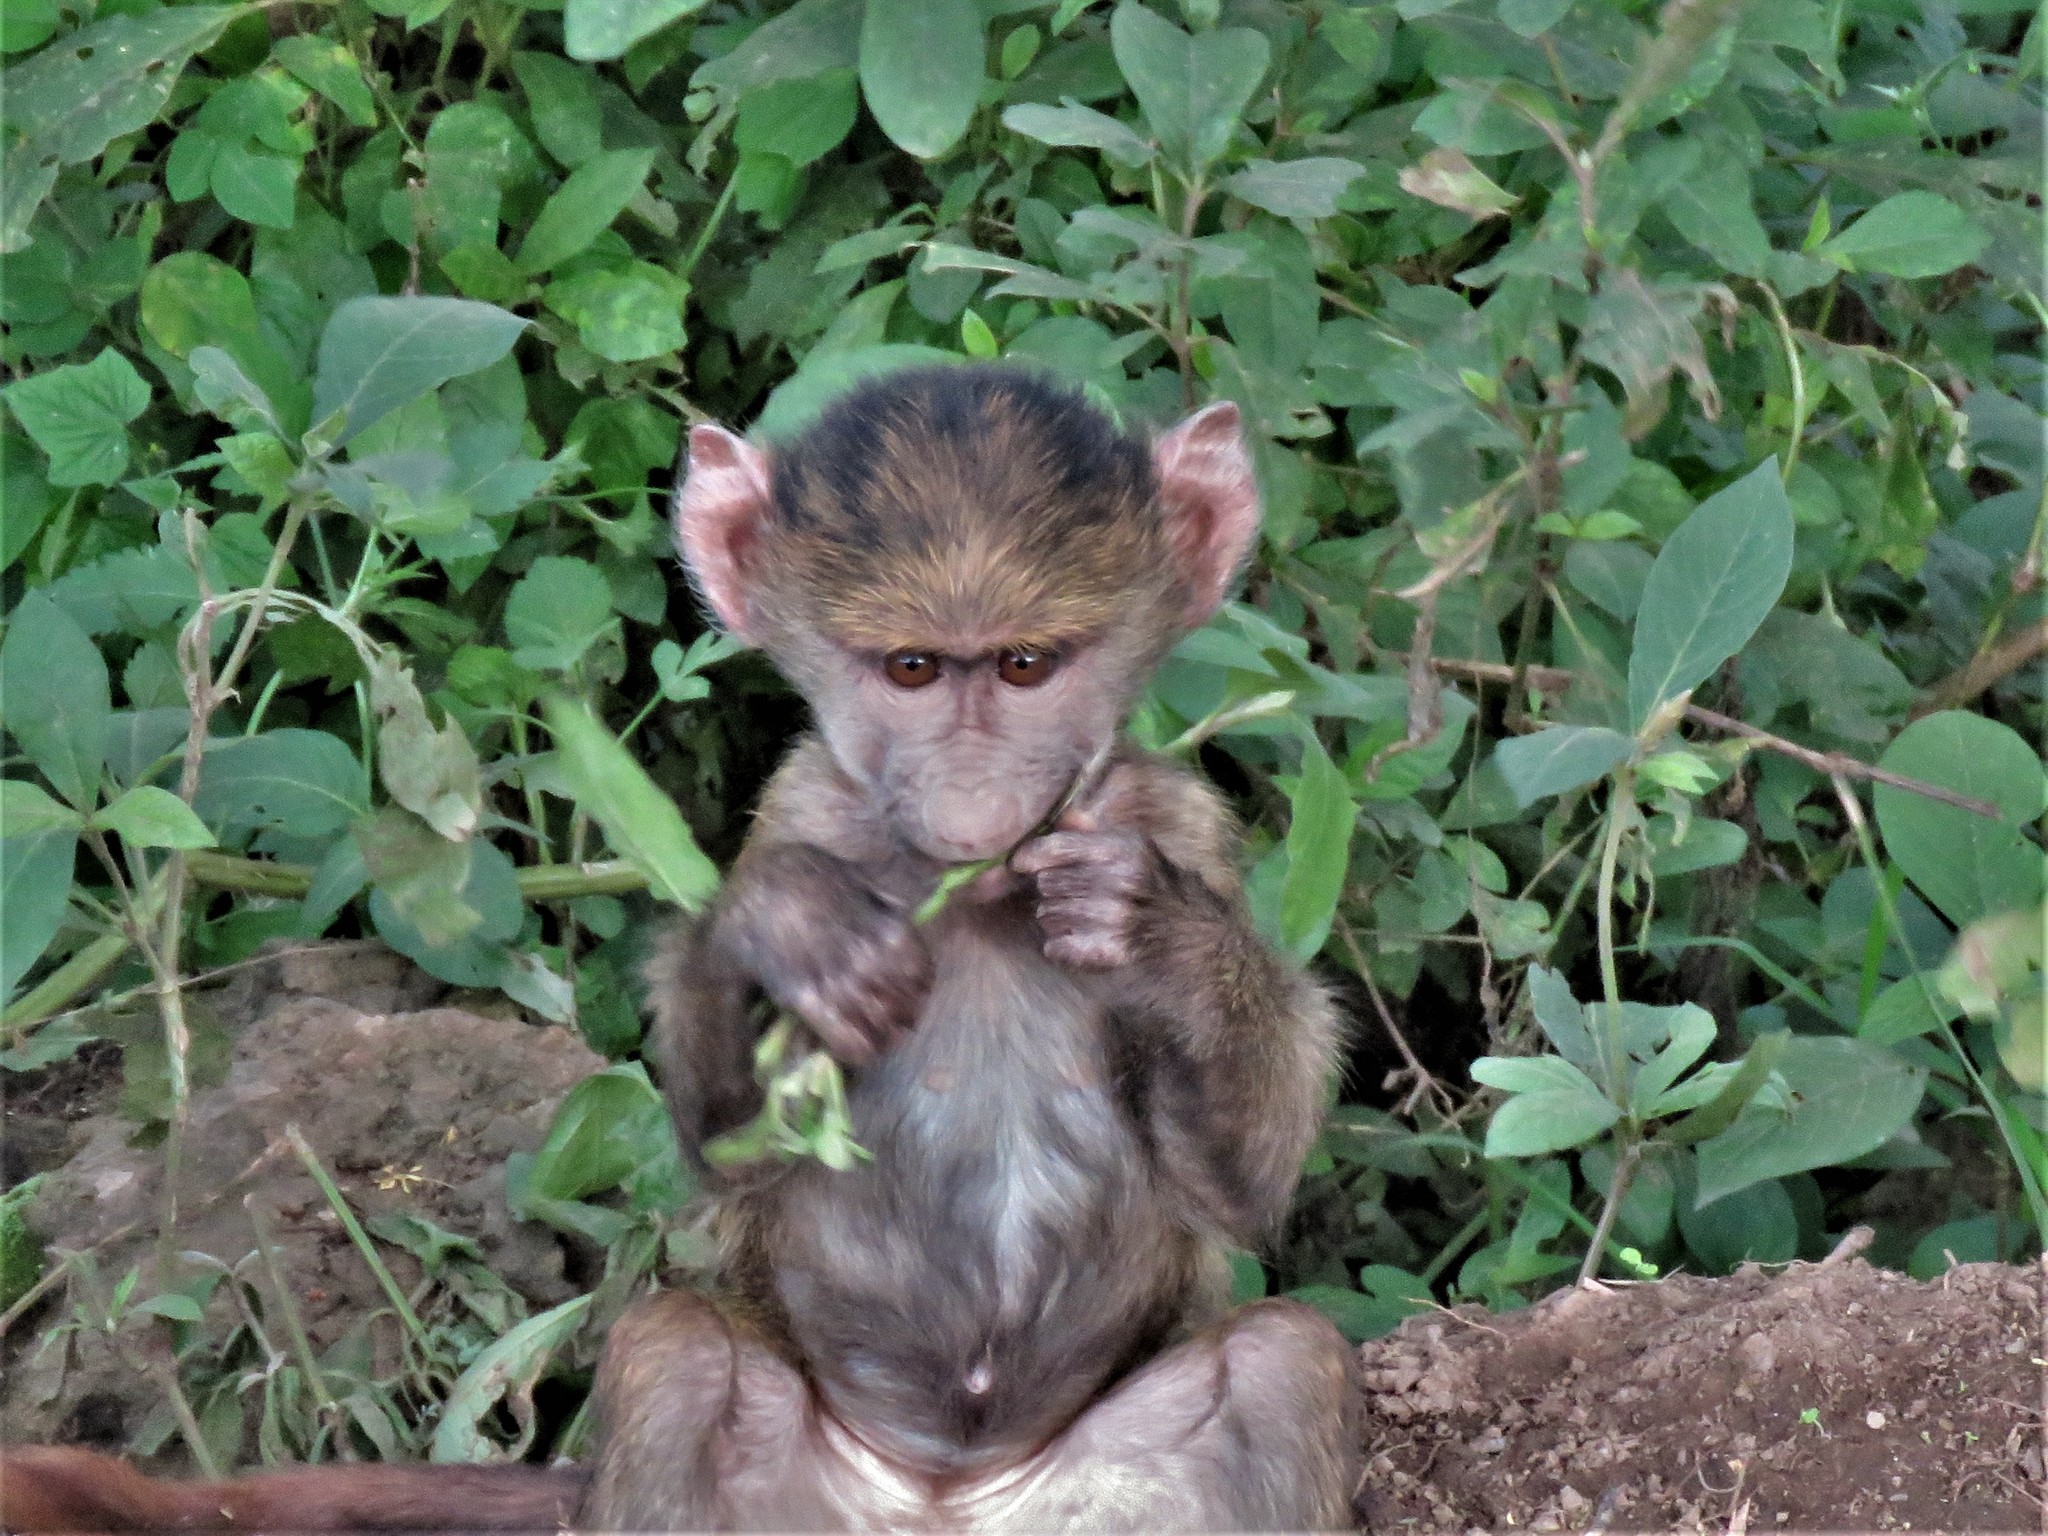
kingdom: Animalia
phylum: Chordata
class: Mammalia
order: Primates
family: Cercopithecidae
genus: Papio
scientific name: Papio anubis
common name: Olive baboon
